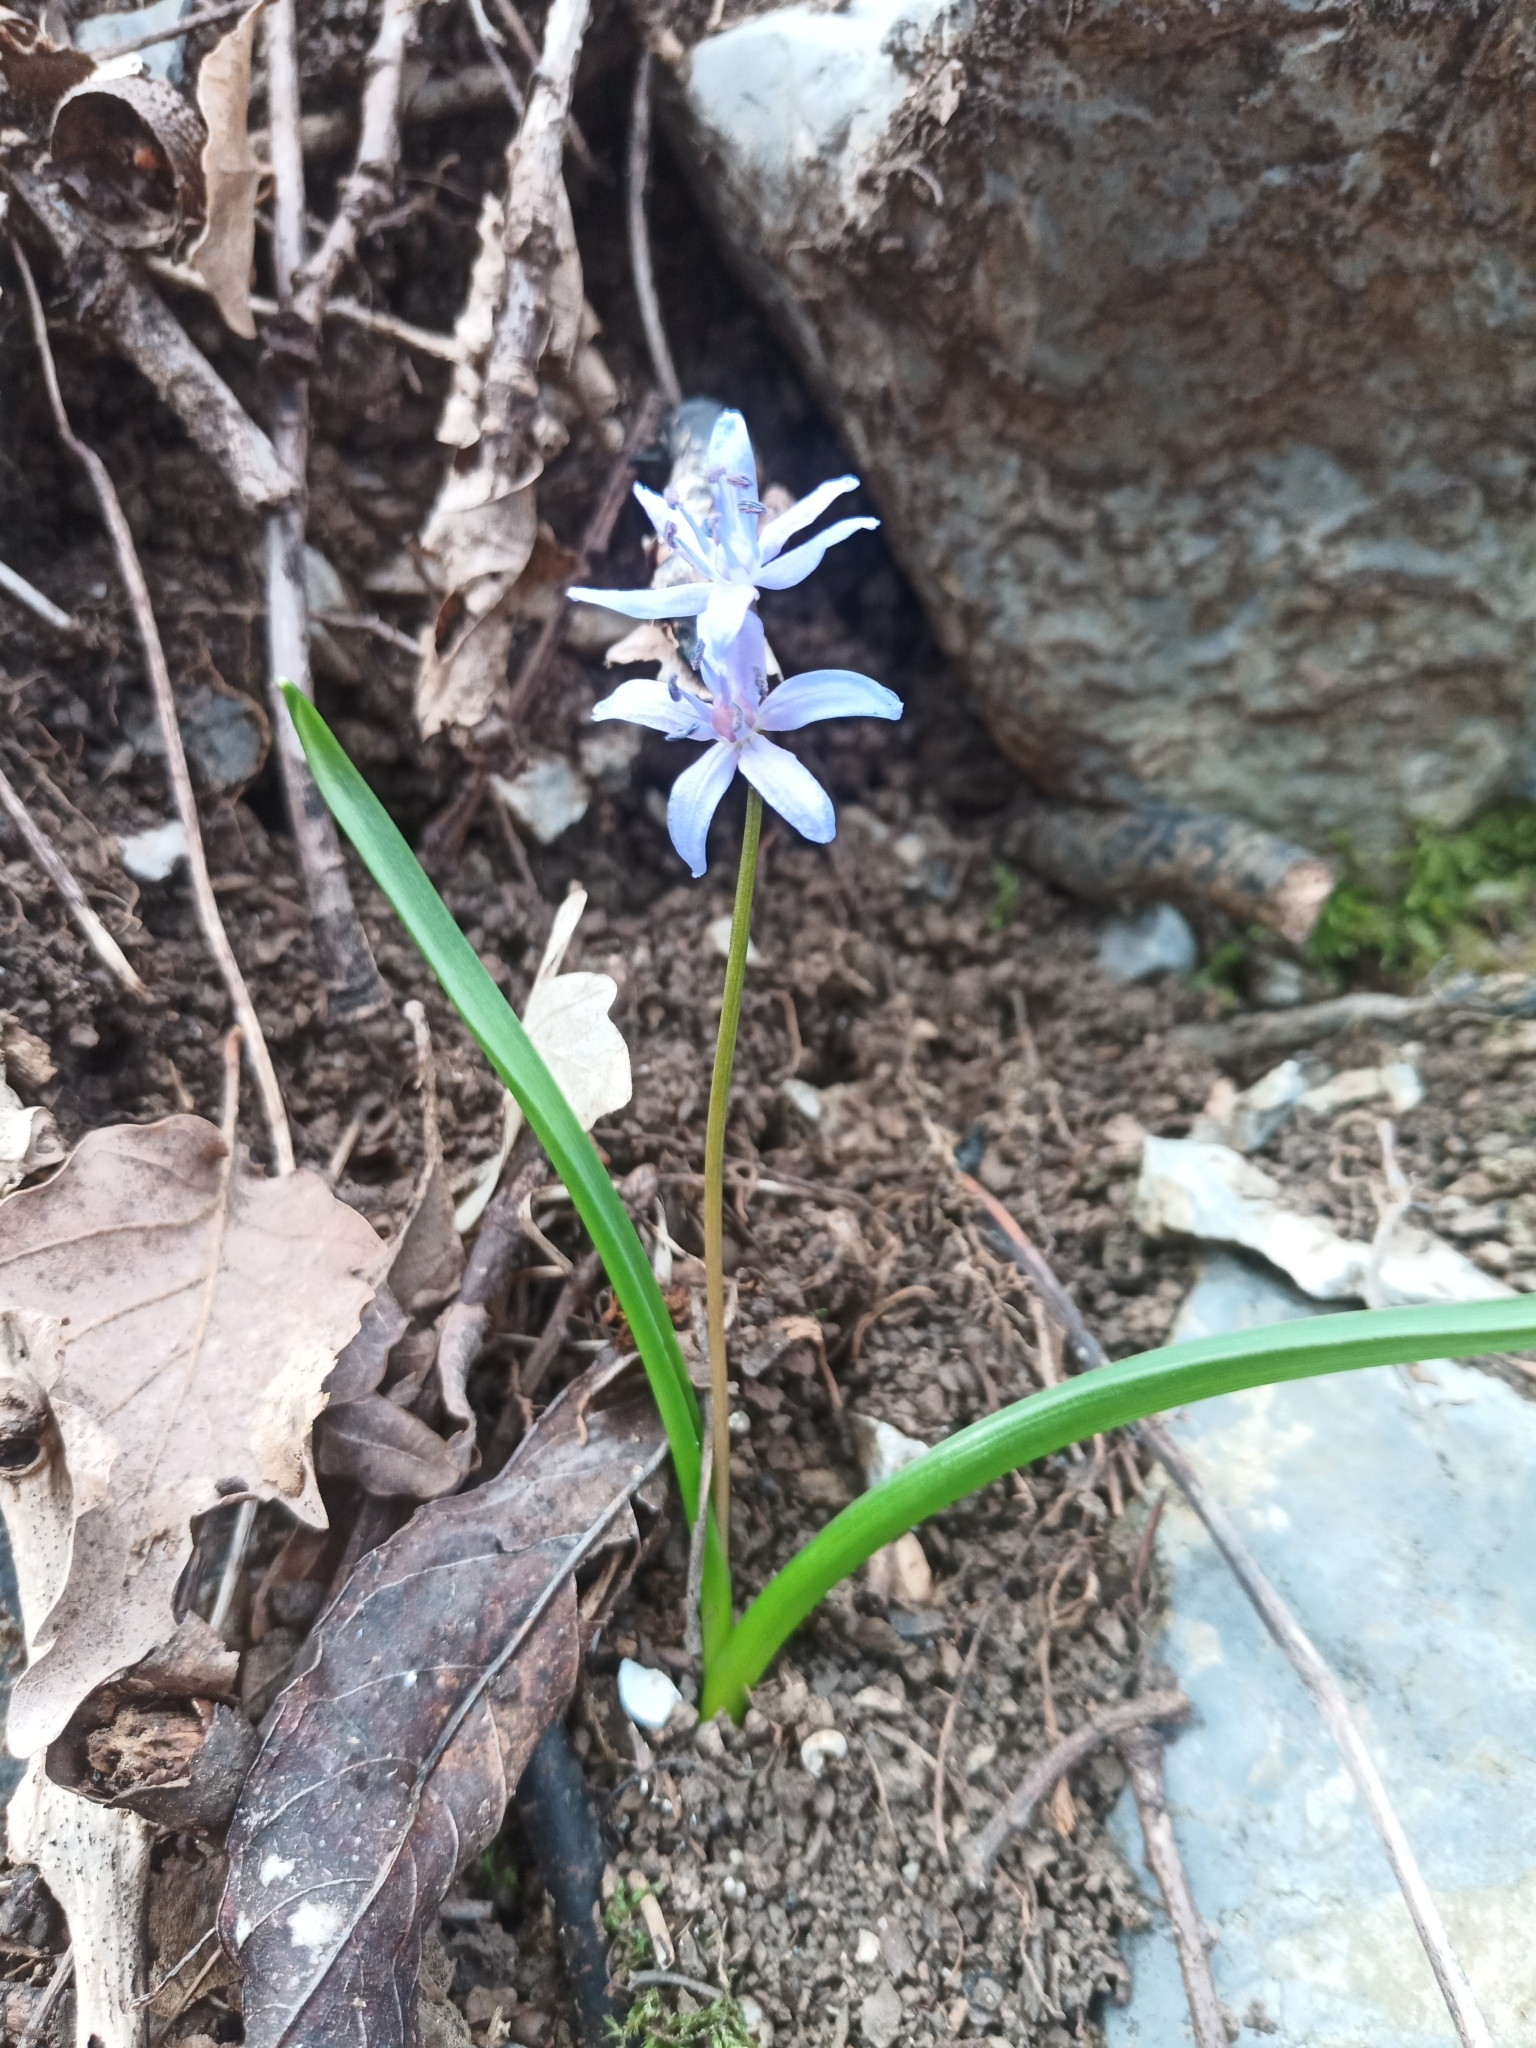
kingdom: Plantae
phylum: Tracheophyta
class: Liliopsida
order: Asparagales
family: Asparagaceae
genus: Scilla
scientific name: Scilla bifolia
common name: Alpine squill
